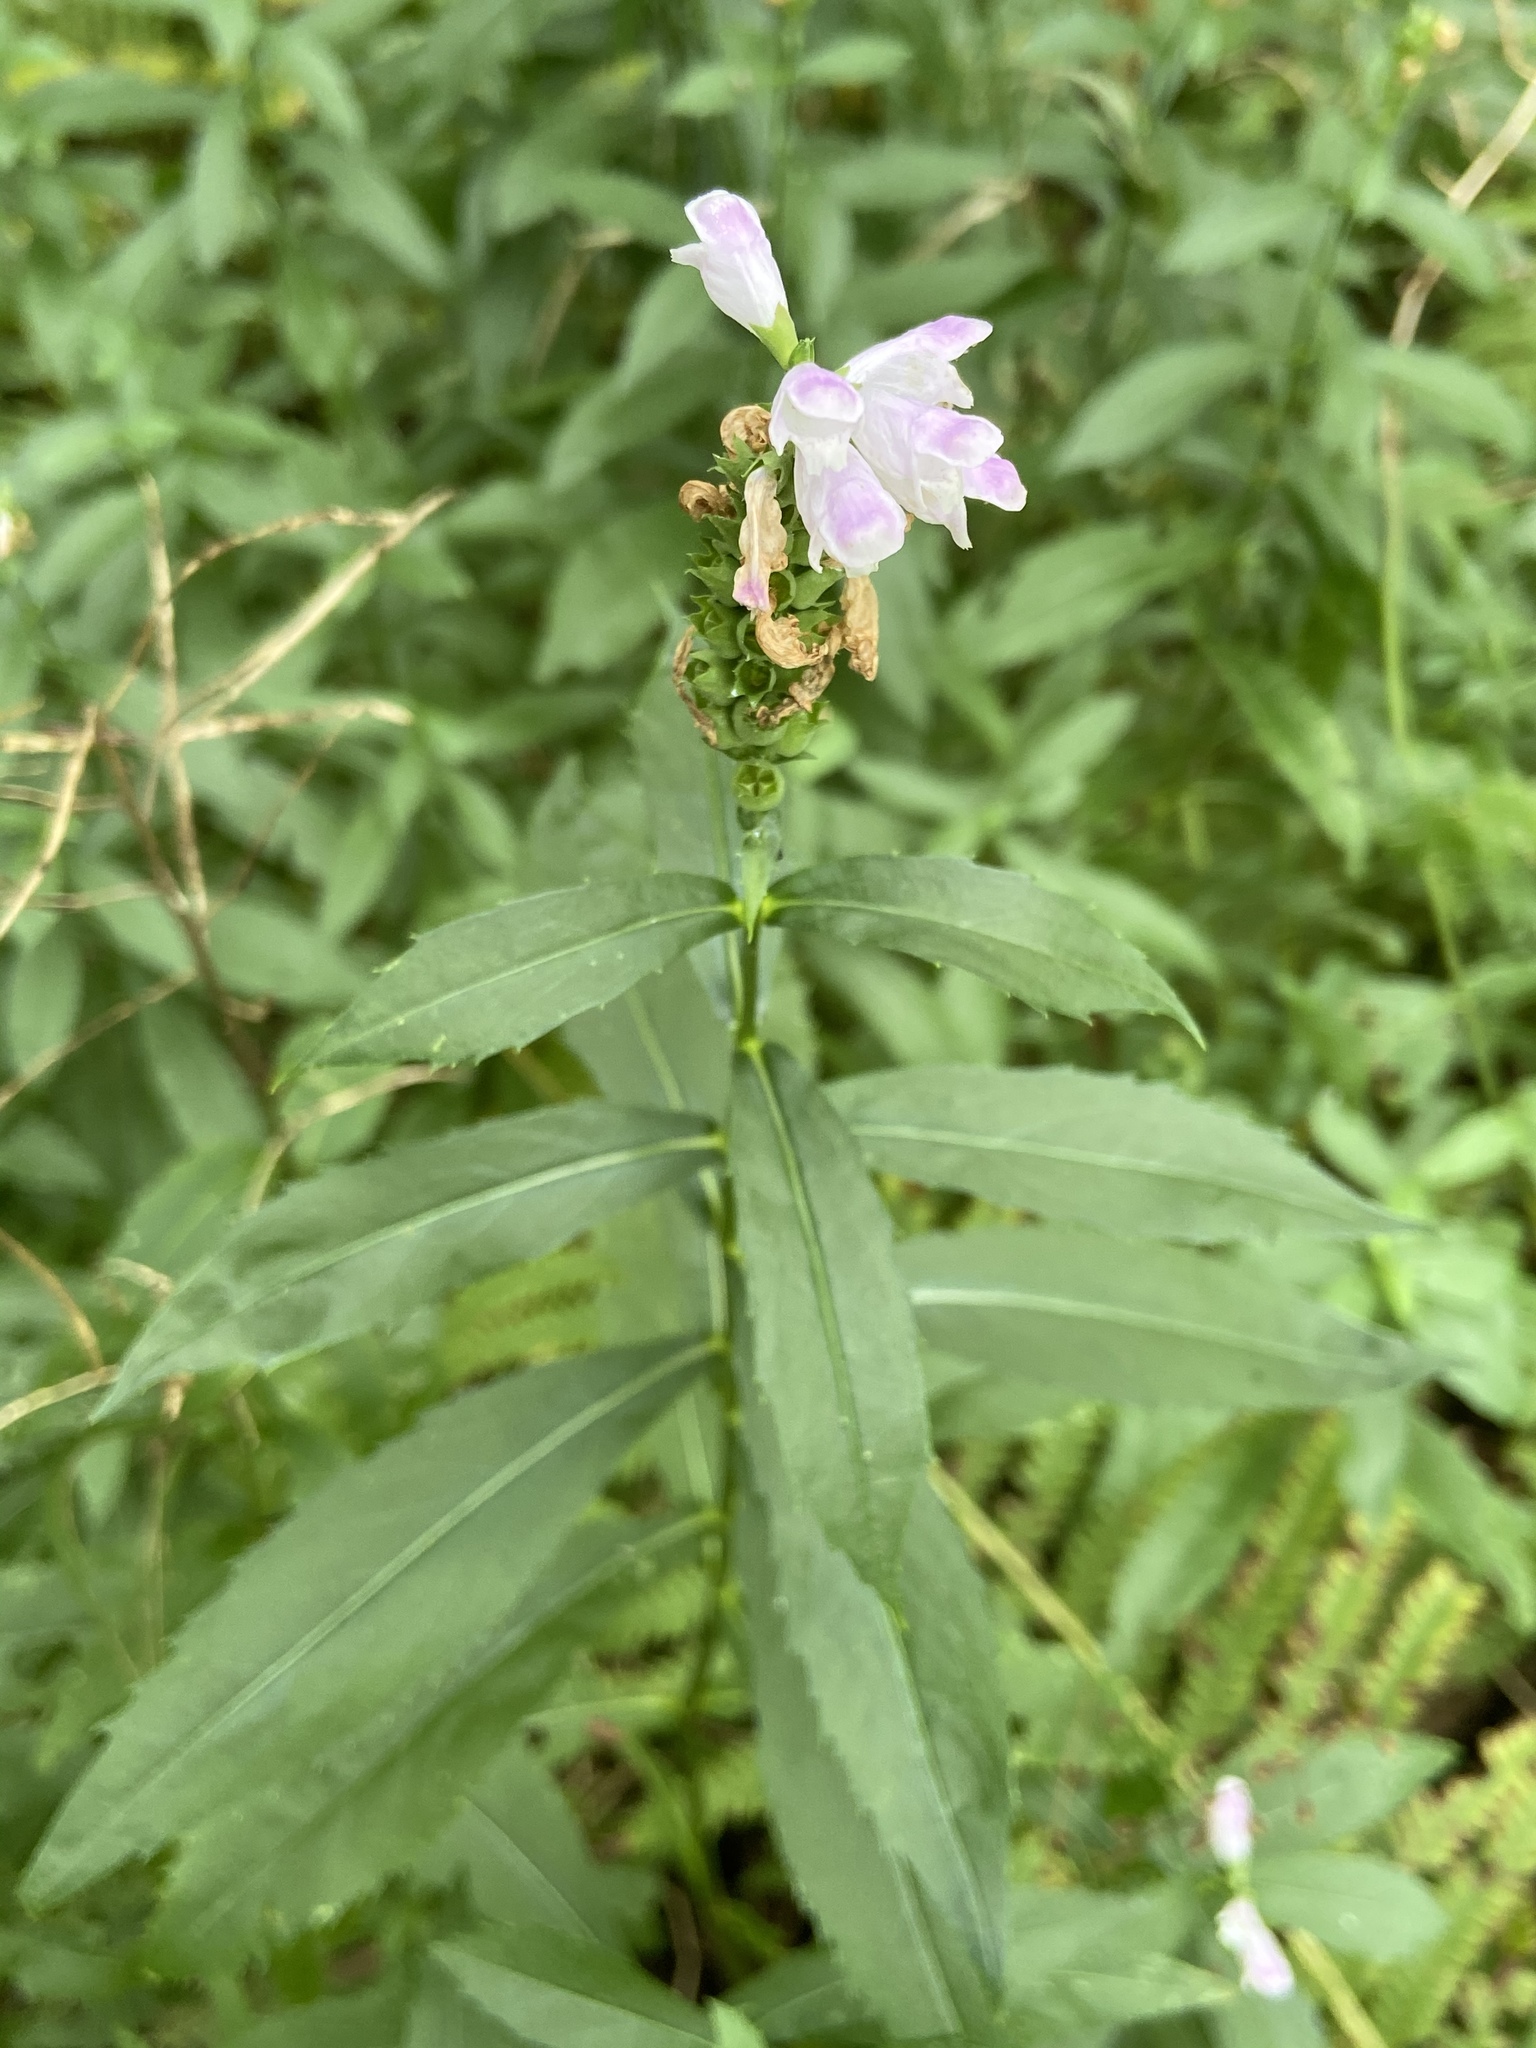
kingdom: Plantae
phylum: Tracheophyta
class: Magnoliopsida
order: Lamiales
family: Lamiaceae
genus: Physostegia
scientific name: Physostegia virginiana
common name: Obedient-plant
